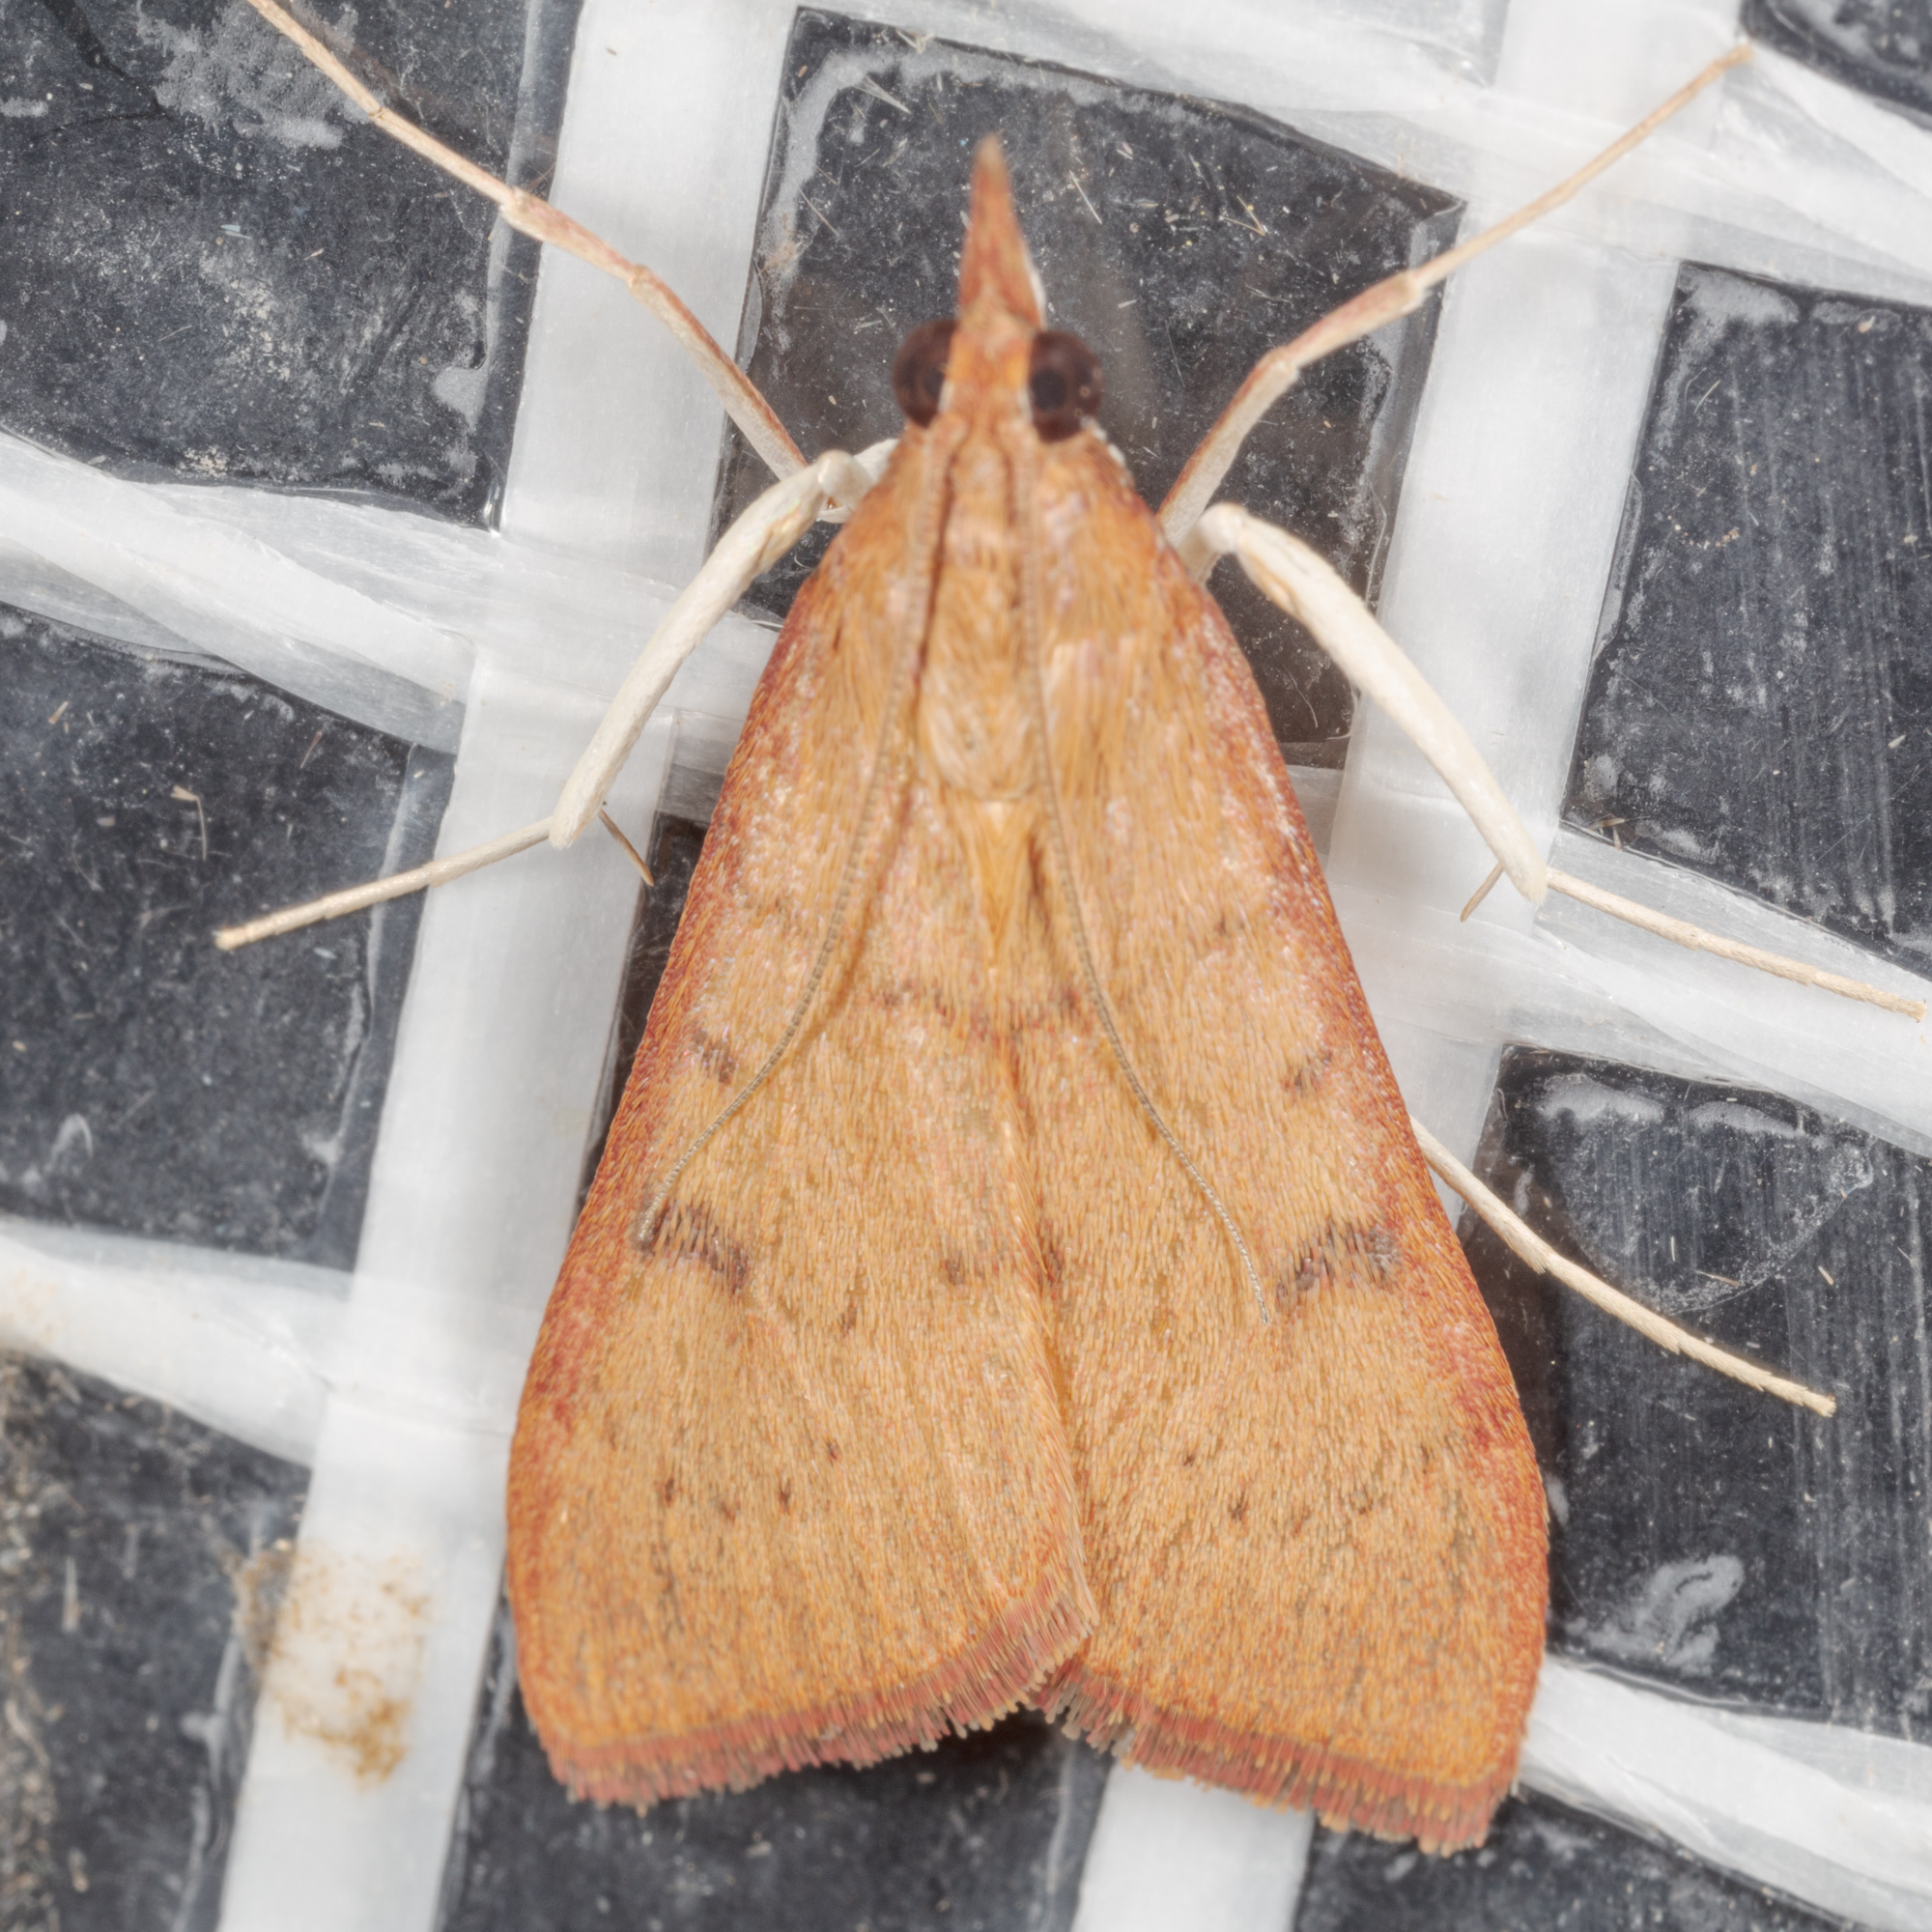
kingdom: Animalia
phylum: Arthropoda
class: Insecta
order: Lepidoptera
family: Crambidae
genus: Uresiphita
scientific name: Uresiphita reversalis
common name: Genista broom moth
